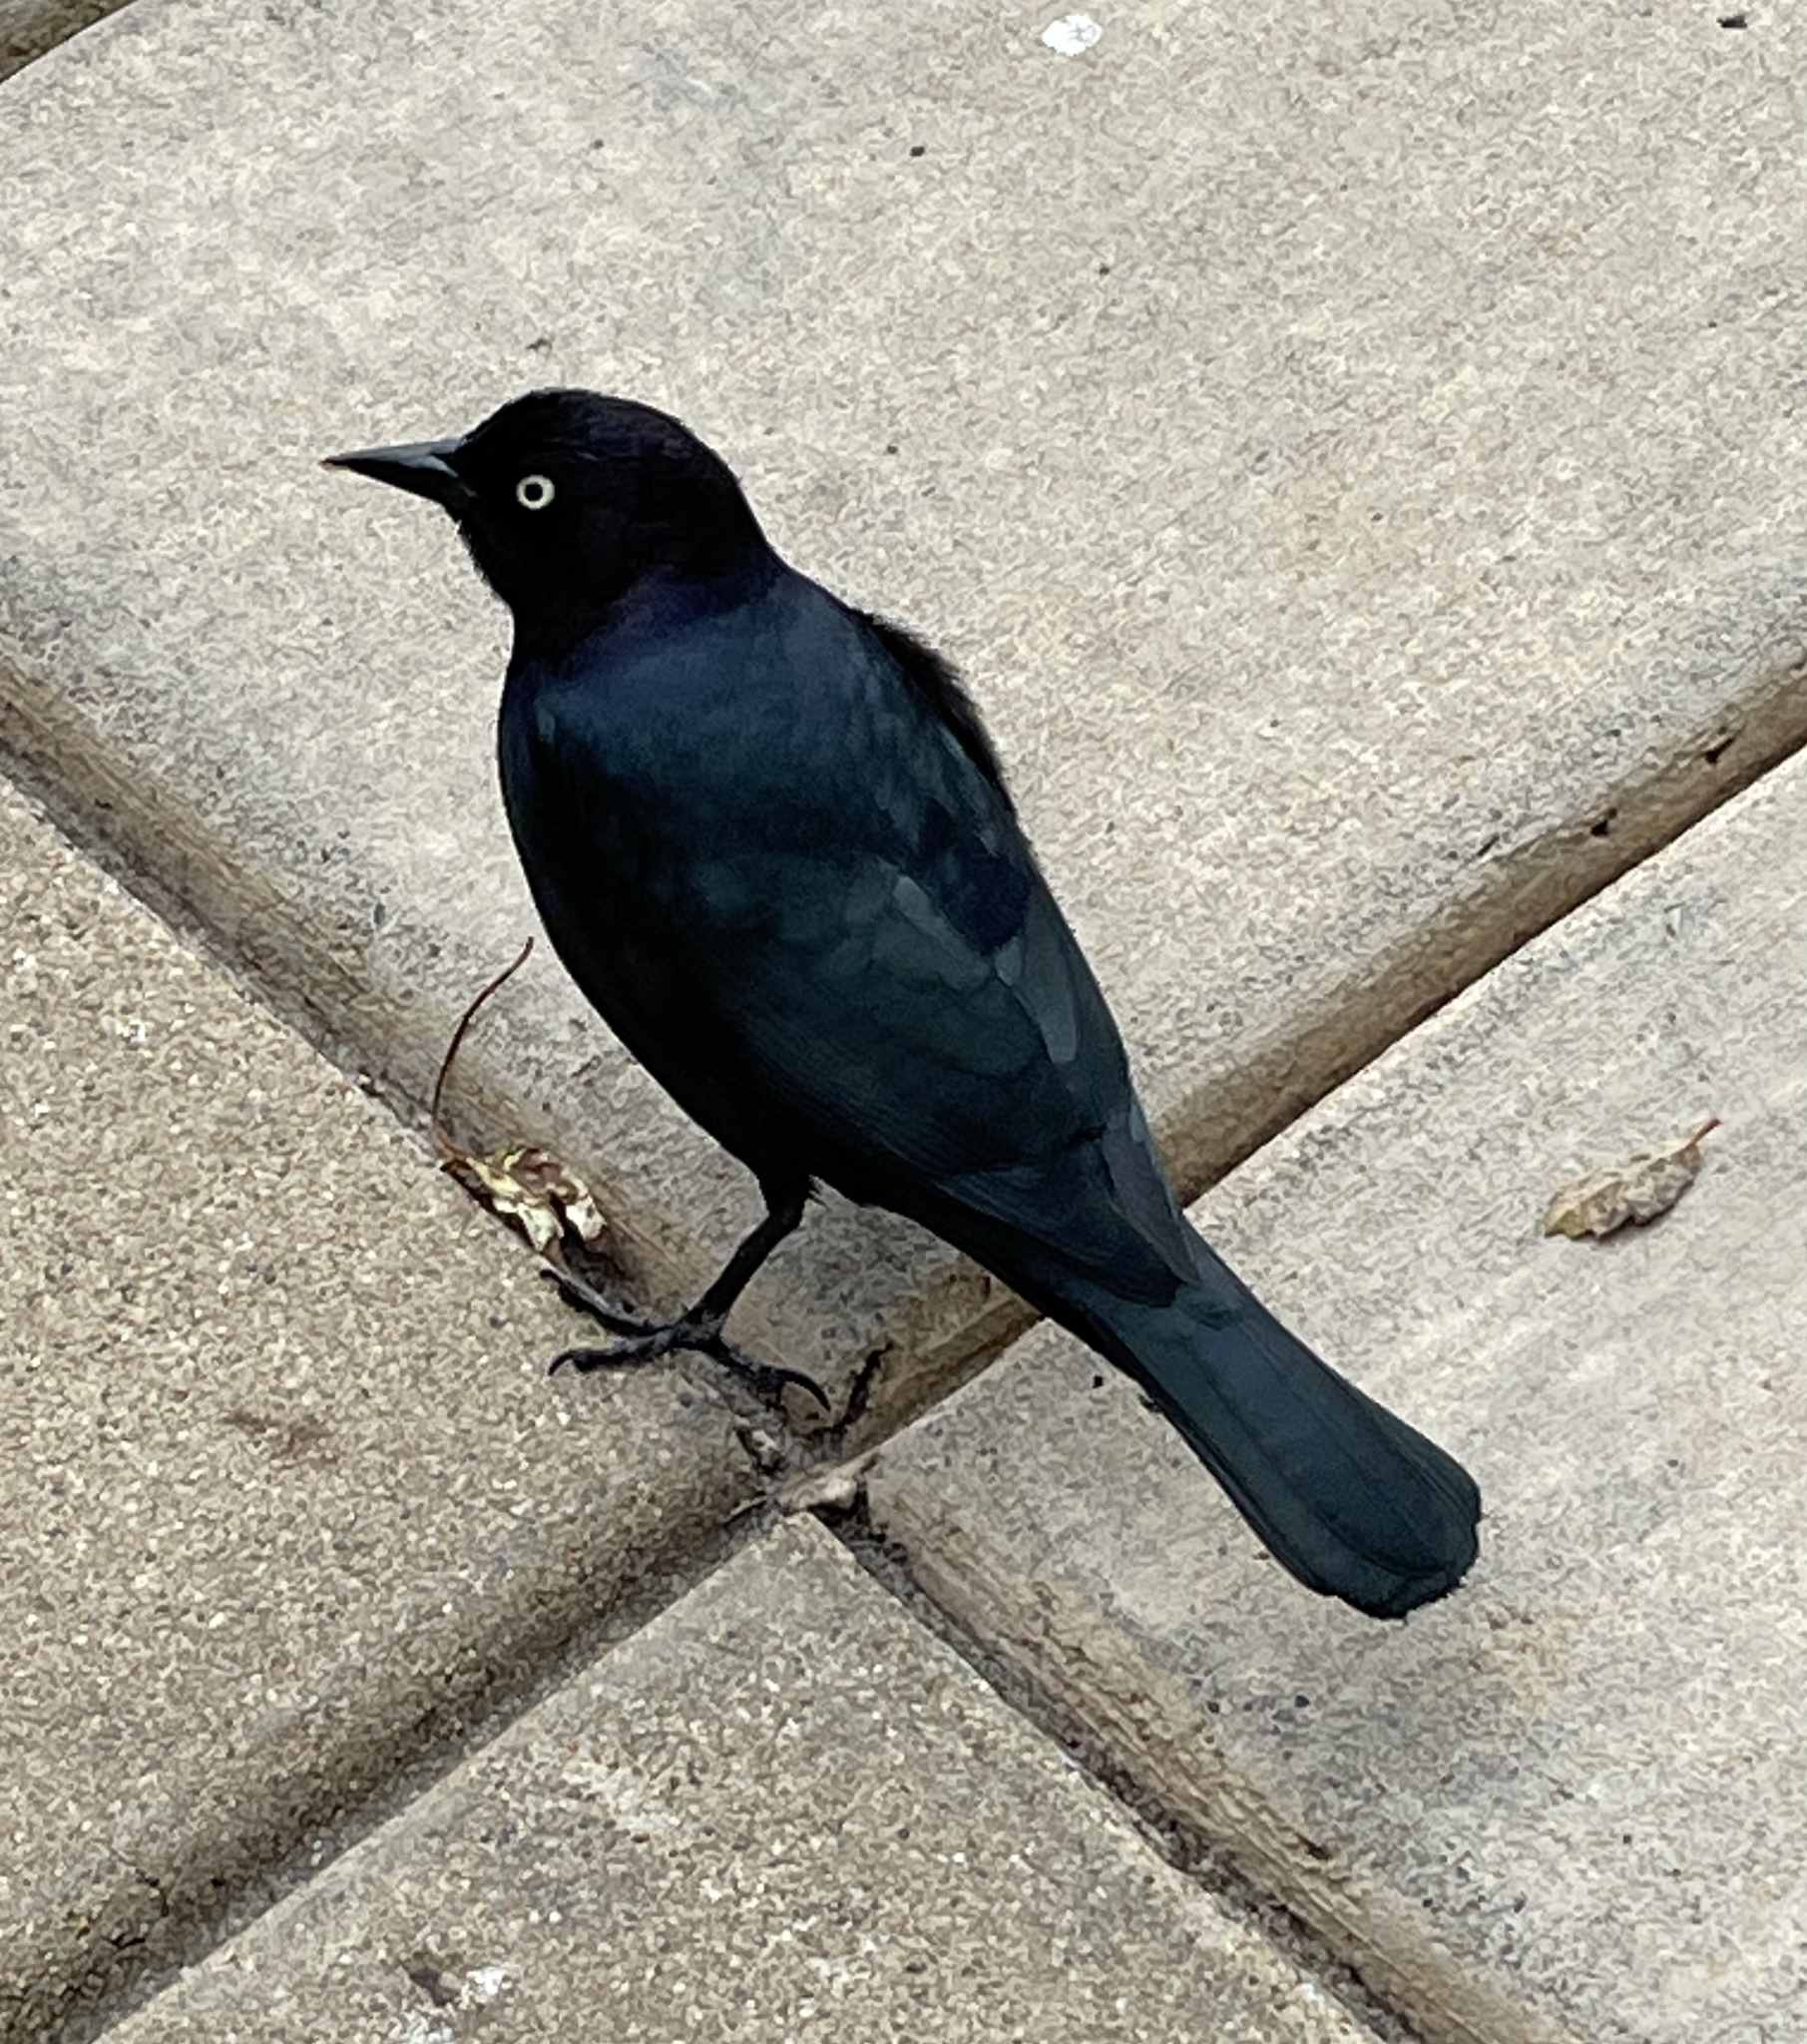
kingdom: Animalia
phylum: Chordata
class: Aves
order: Passeriformes
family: Icteridae
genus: Euphagus
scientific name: Euphagus cyanocephalus
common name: Brewer's blackbird
